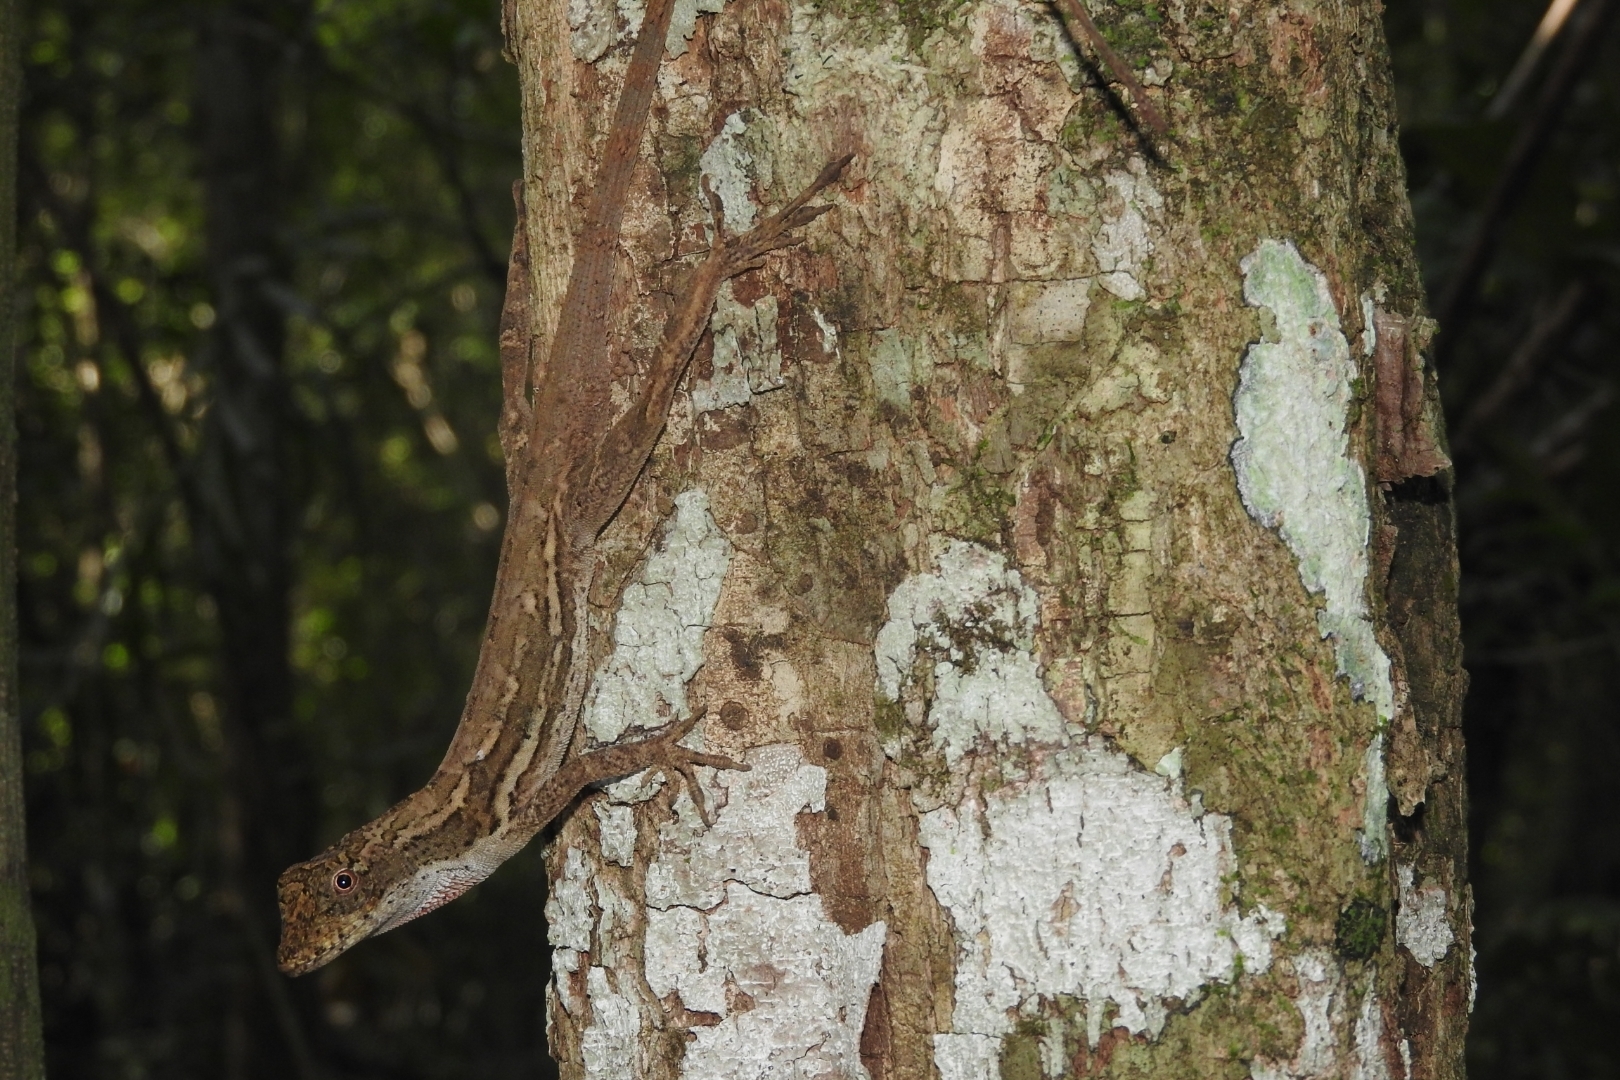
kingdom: Animalia
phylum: Chordata
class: Squamata
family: Dactyloidae
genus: Anolis
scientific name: Anolis lemurinus
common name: Ghost anole
